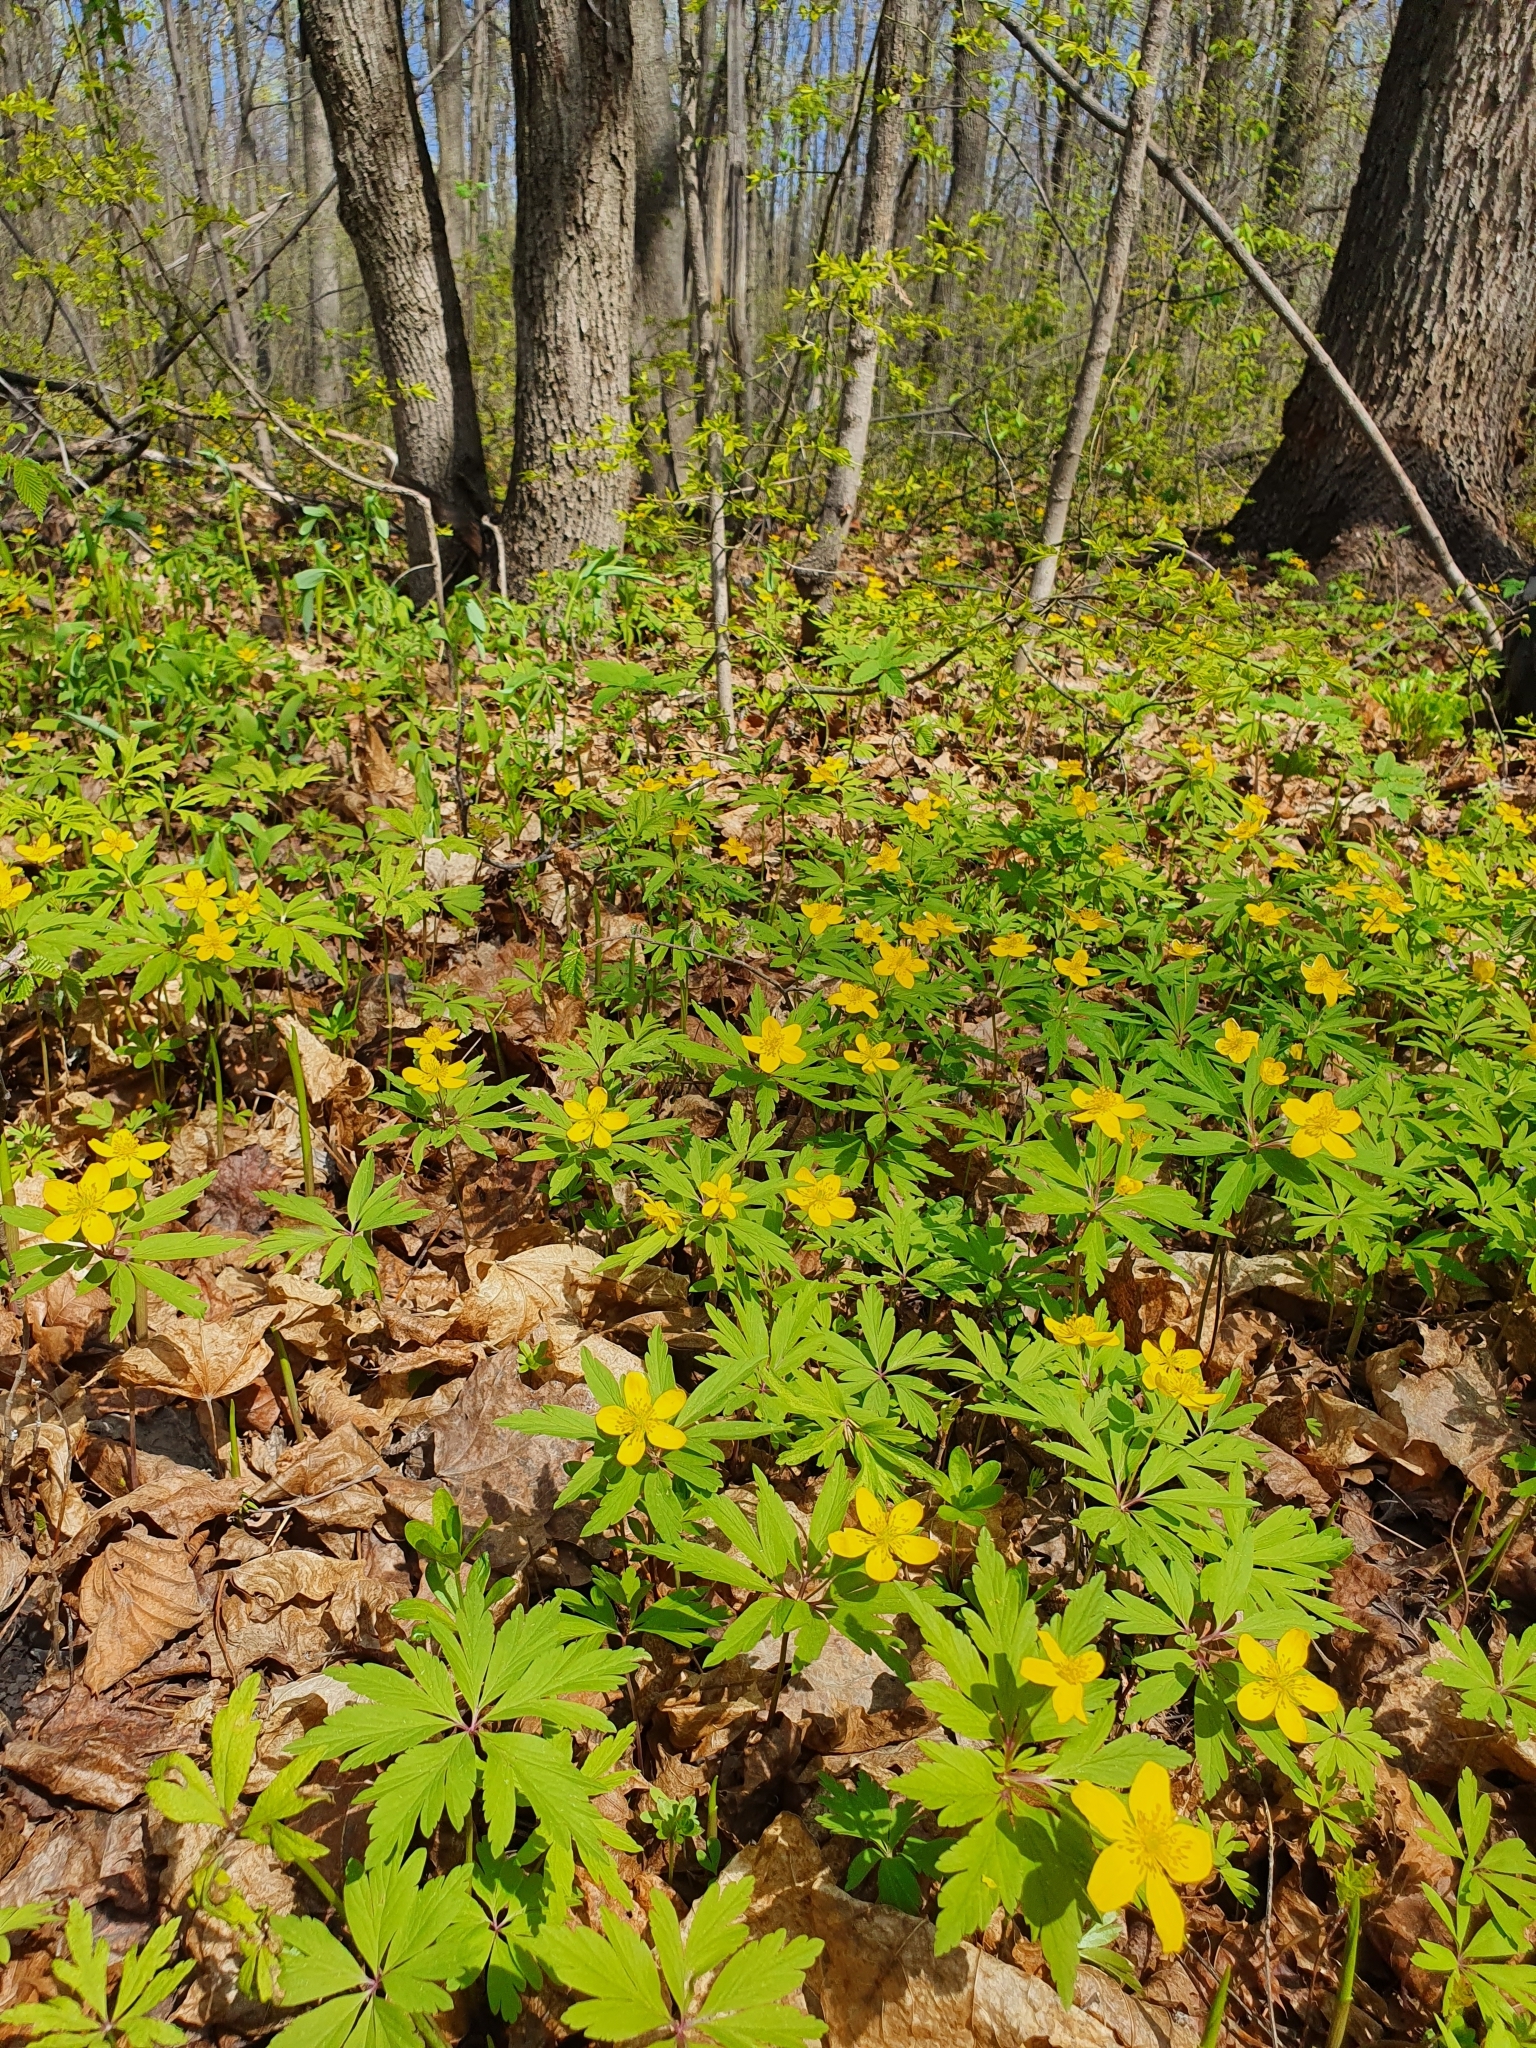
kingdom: Plantae
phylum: Tracheophyta
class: Magnoliopsida
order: Ranunculales
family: Ranunculaceae
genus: Anemone
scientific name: Anemone ranunculoides
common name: Yellow anemone
